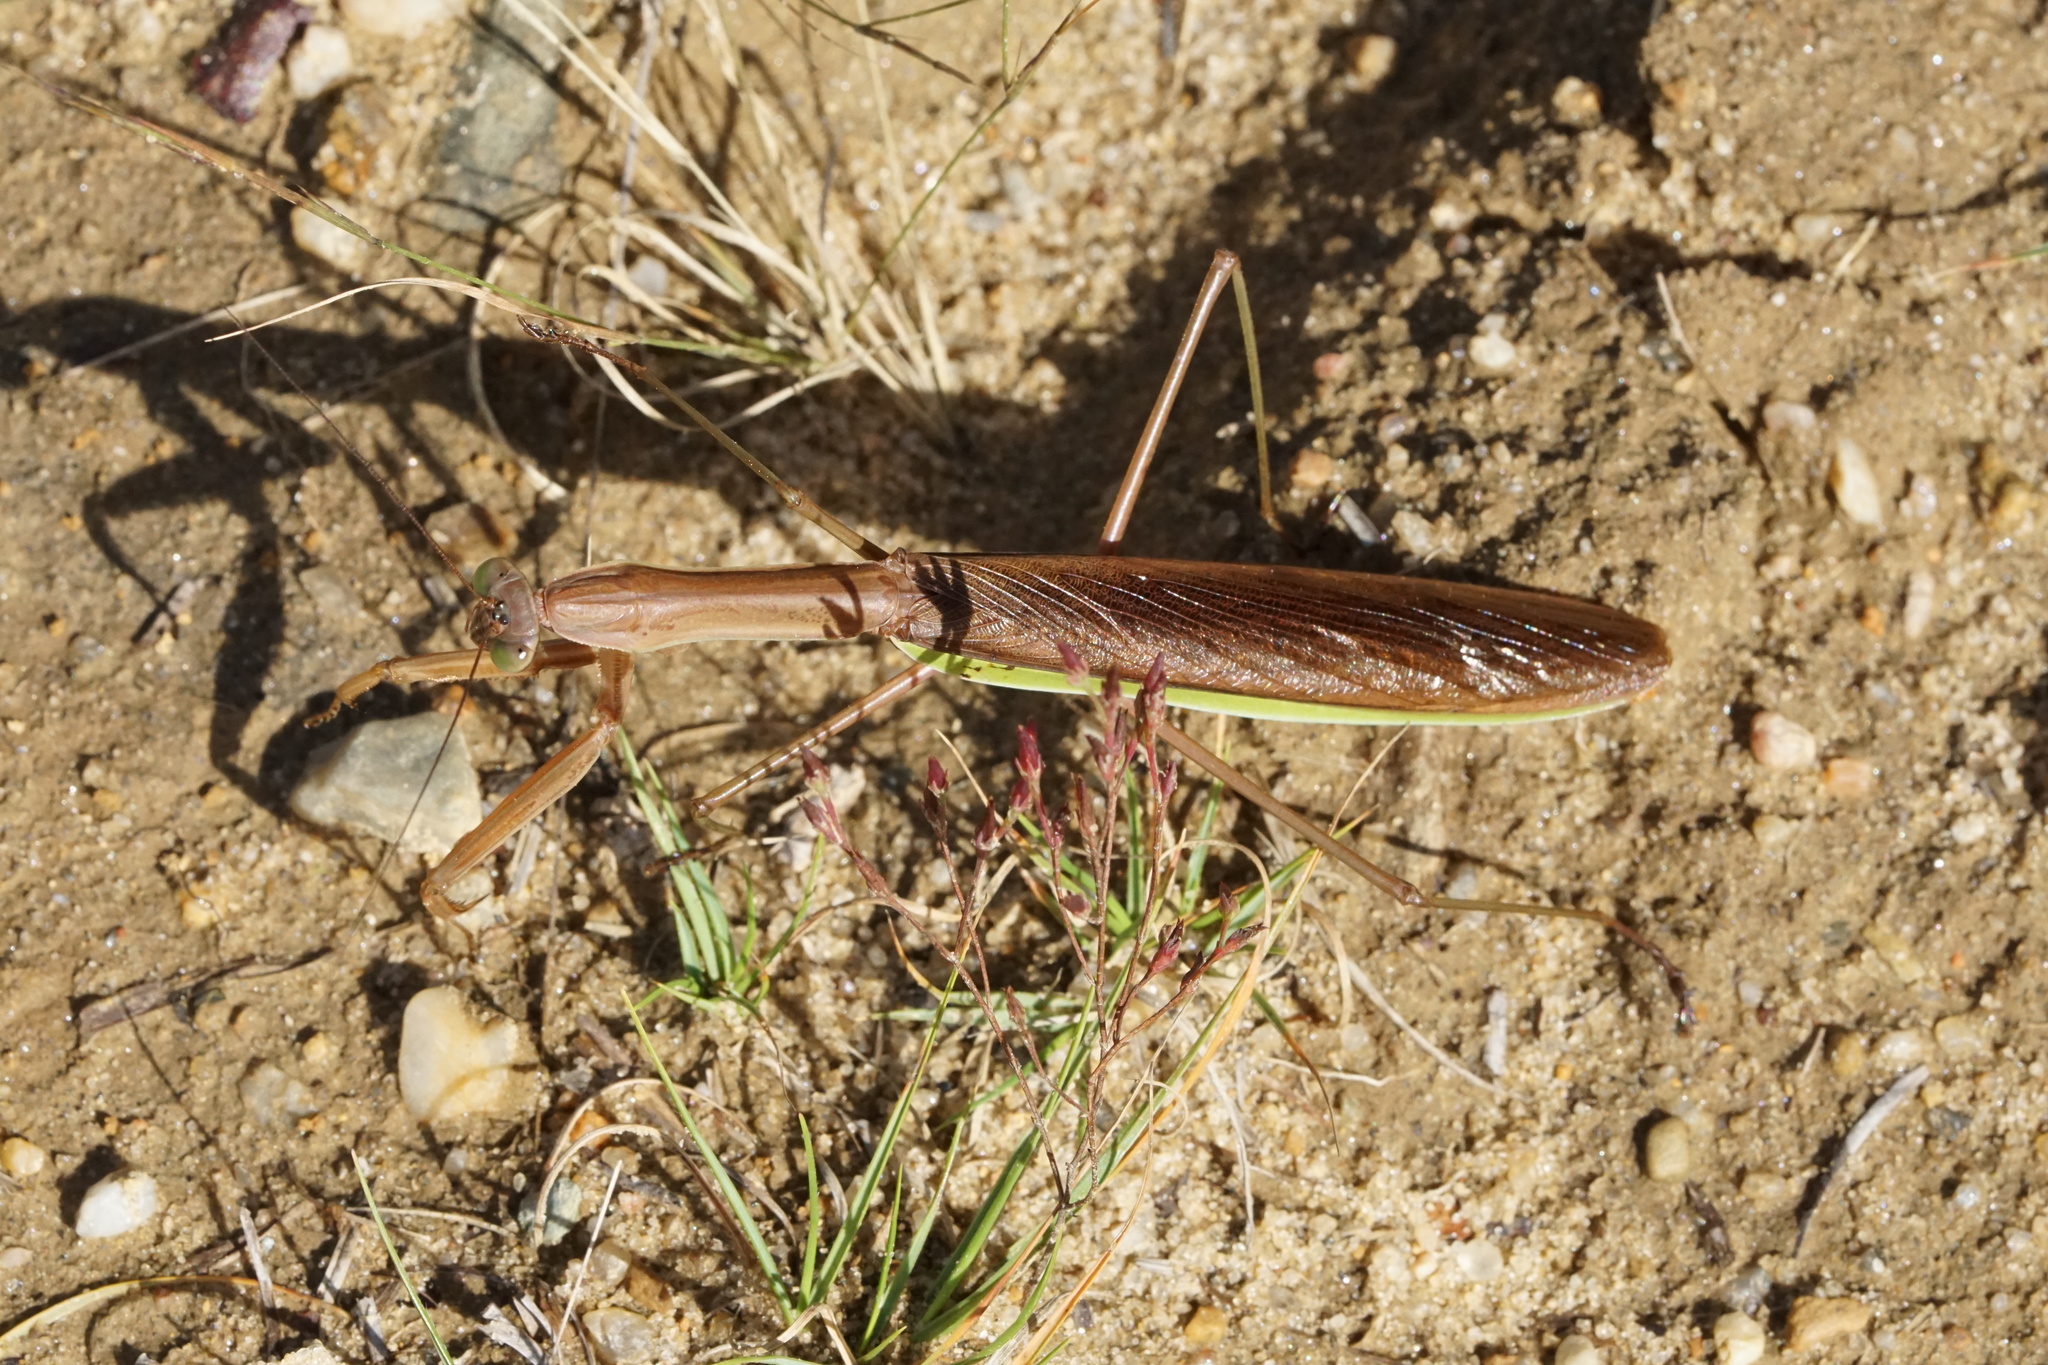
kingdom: Animalia
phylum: Arthropoda
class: Insecta
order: Mantodea
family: Mantidae
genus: Tenodera
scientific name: Tenodera sinensis
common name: Chinese mantis
